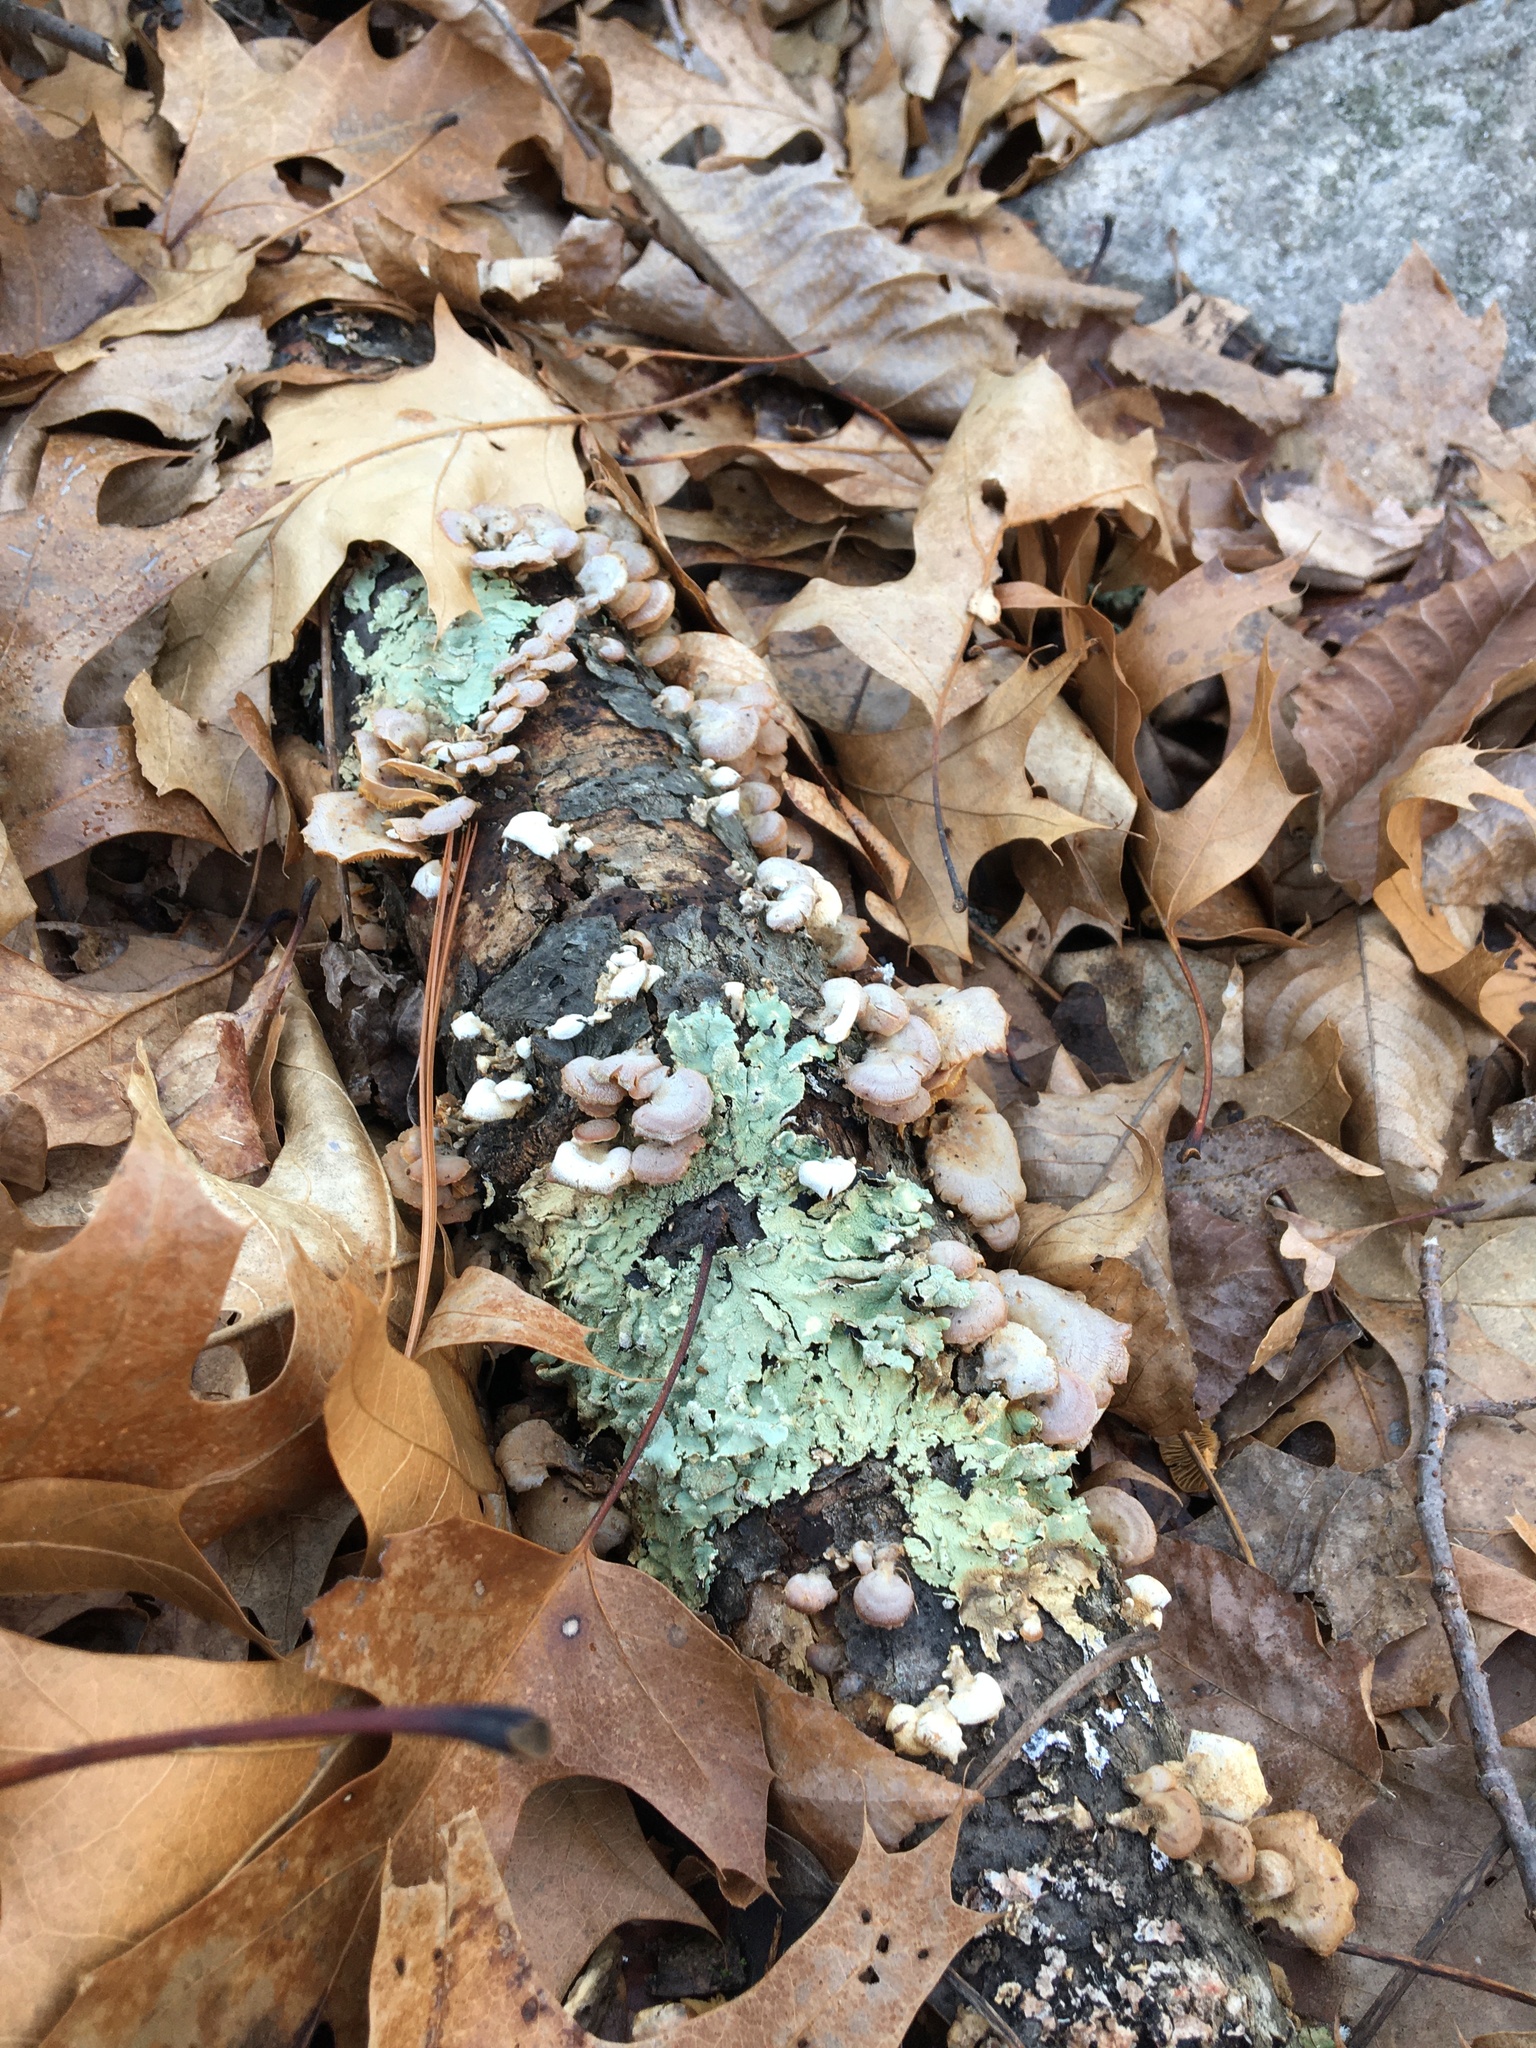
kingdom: Fungi
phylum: Basidiomycota
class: Agaricomycetes
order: Agaricales
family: Mycenaceae
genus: Panellus
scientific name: Panellus stipticus
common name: Bitter oysterling
